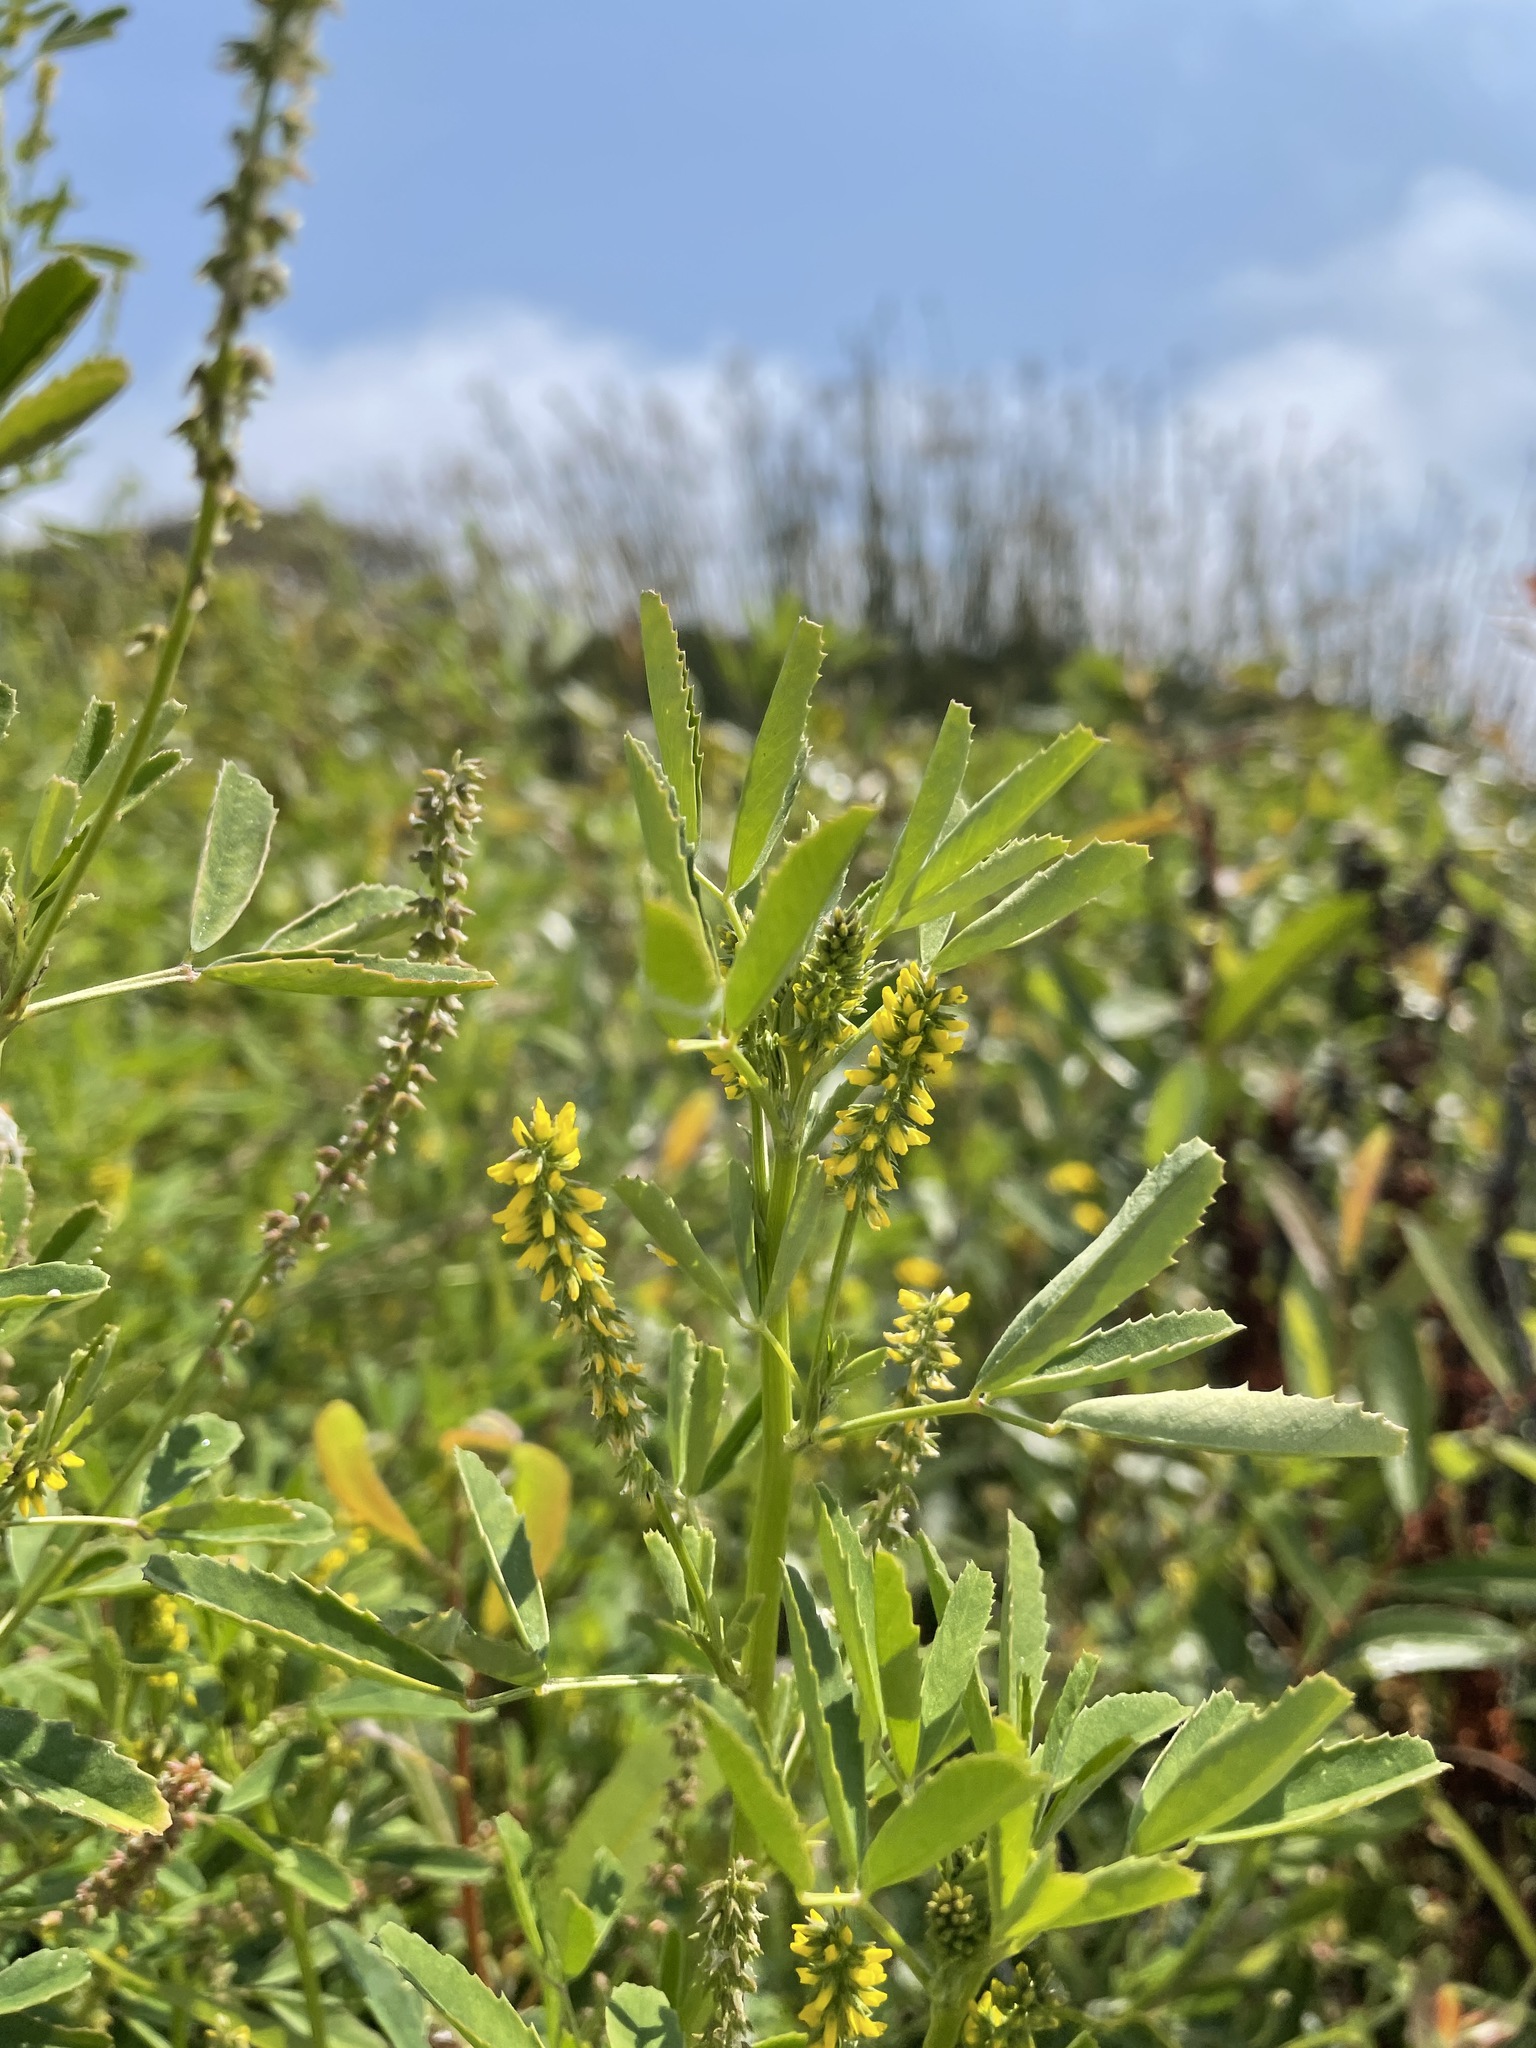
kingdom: Plantae
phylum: Tracheophyta
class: Magnoliopsida
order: Fabales
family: Fabaceae
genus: Melilotus
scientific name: Melilotus indicus
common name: Small melilot
